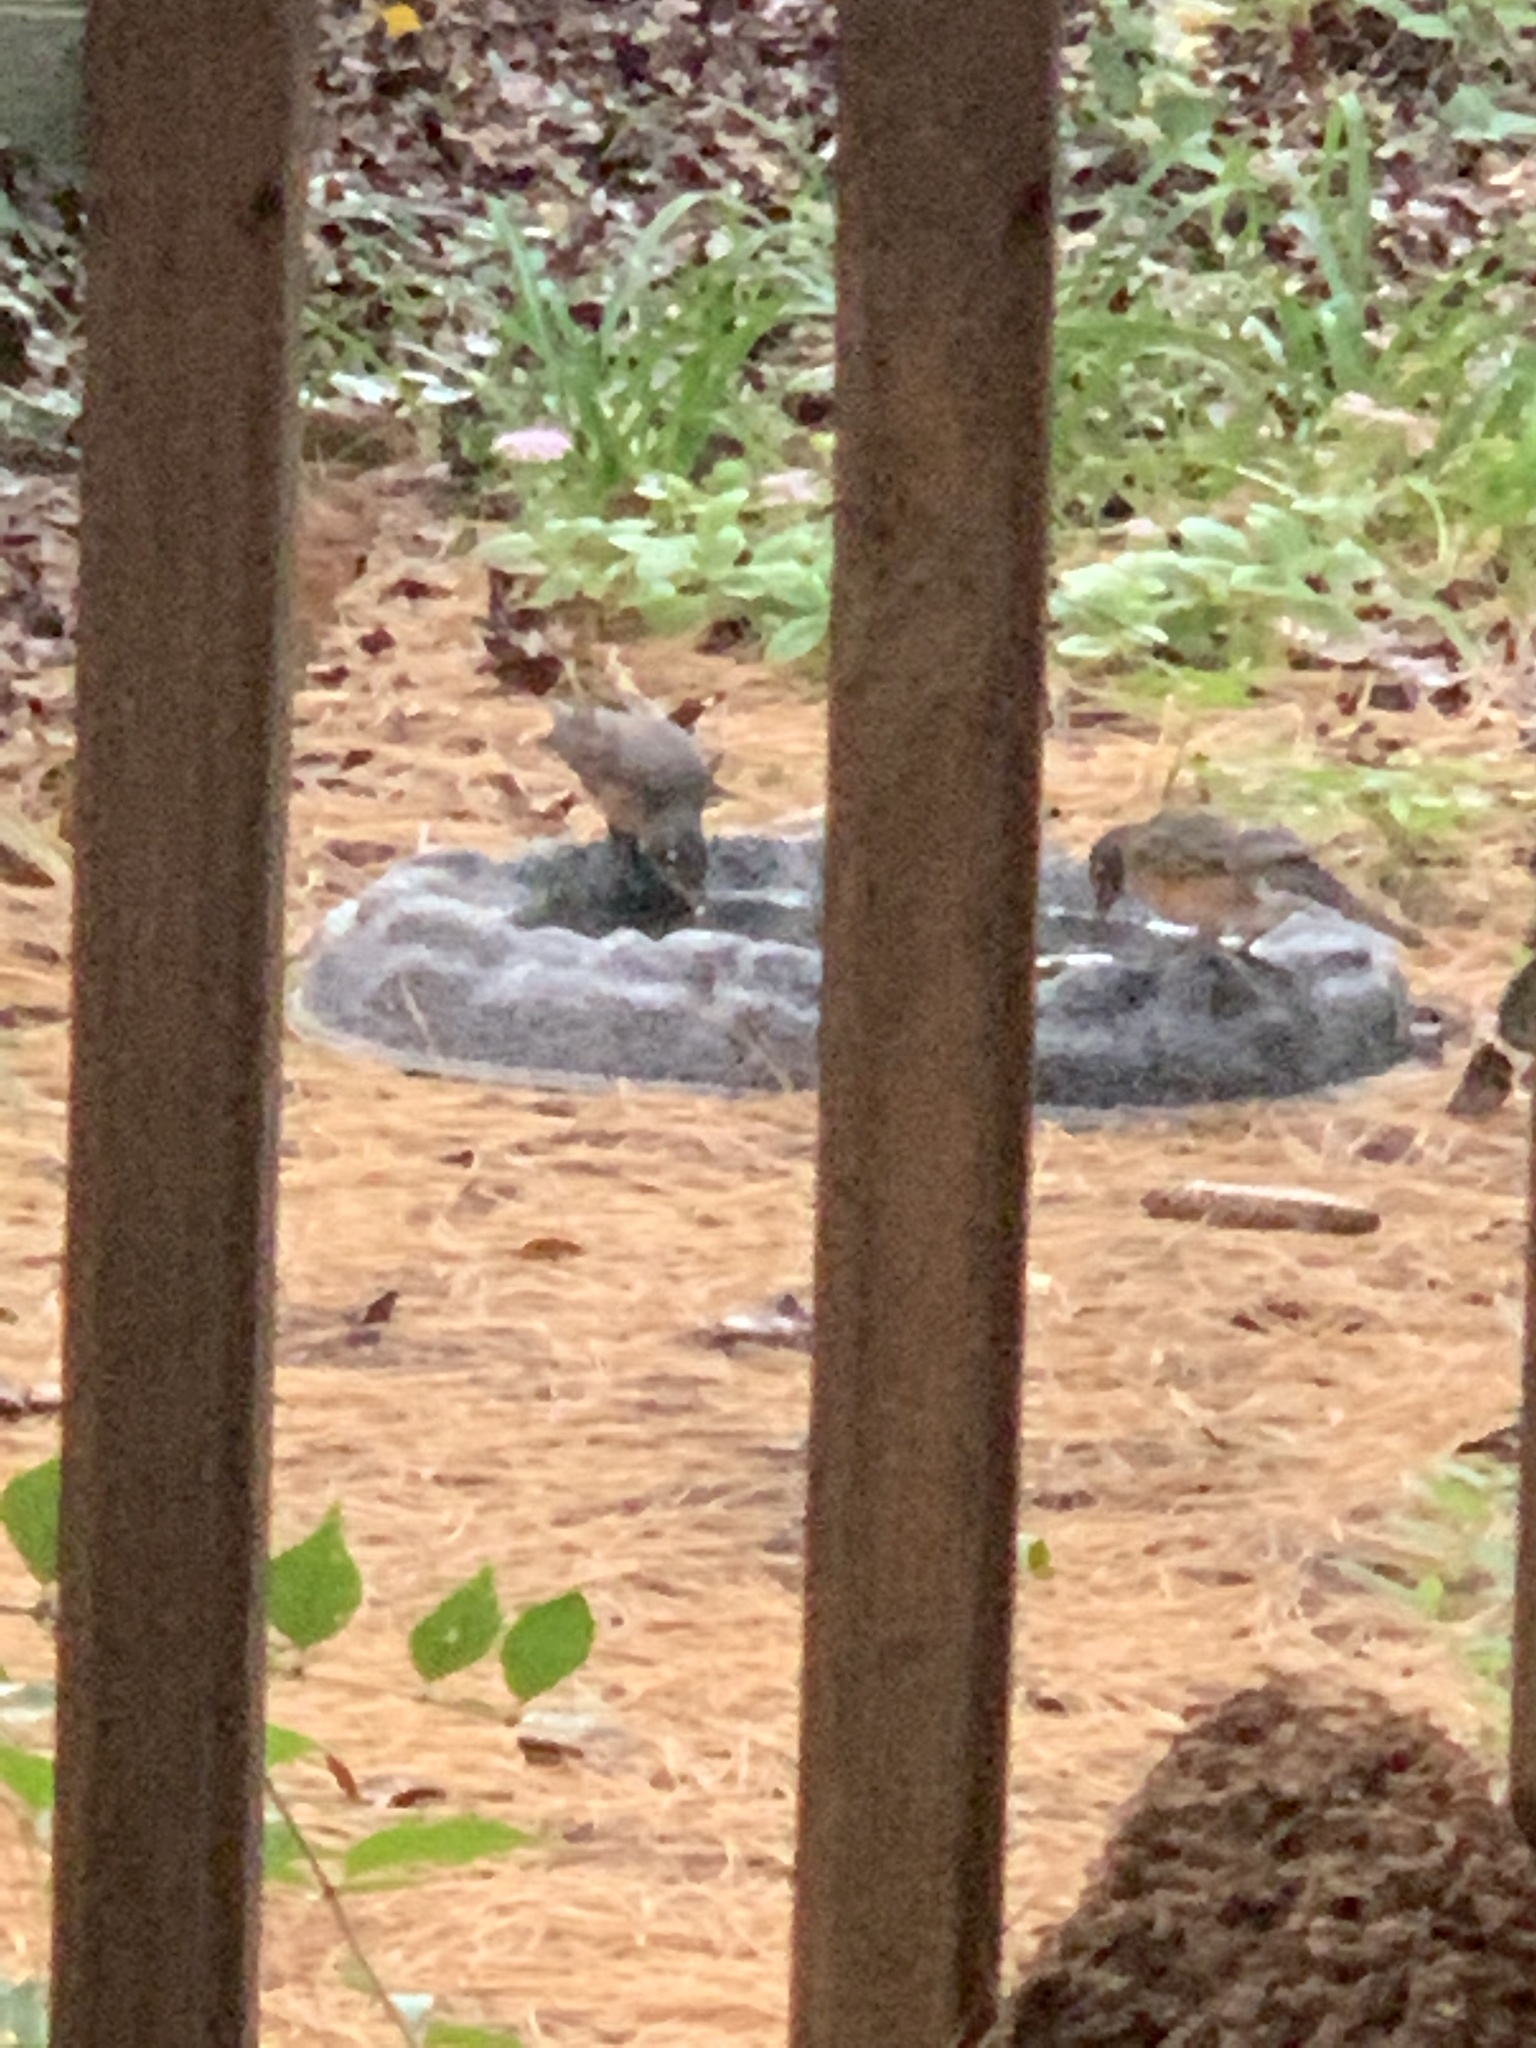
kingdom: Animalia
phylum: Chordata
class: Aves
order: Passeriformes
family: Turdidae
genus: Turdus
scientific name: Turdus migratorius
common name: American robin
